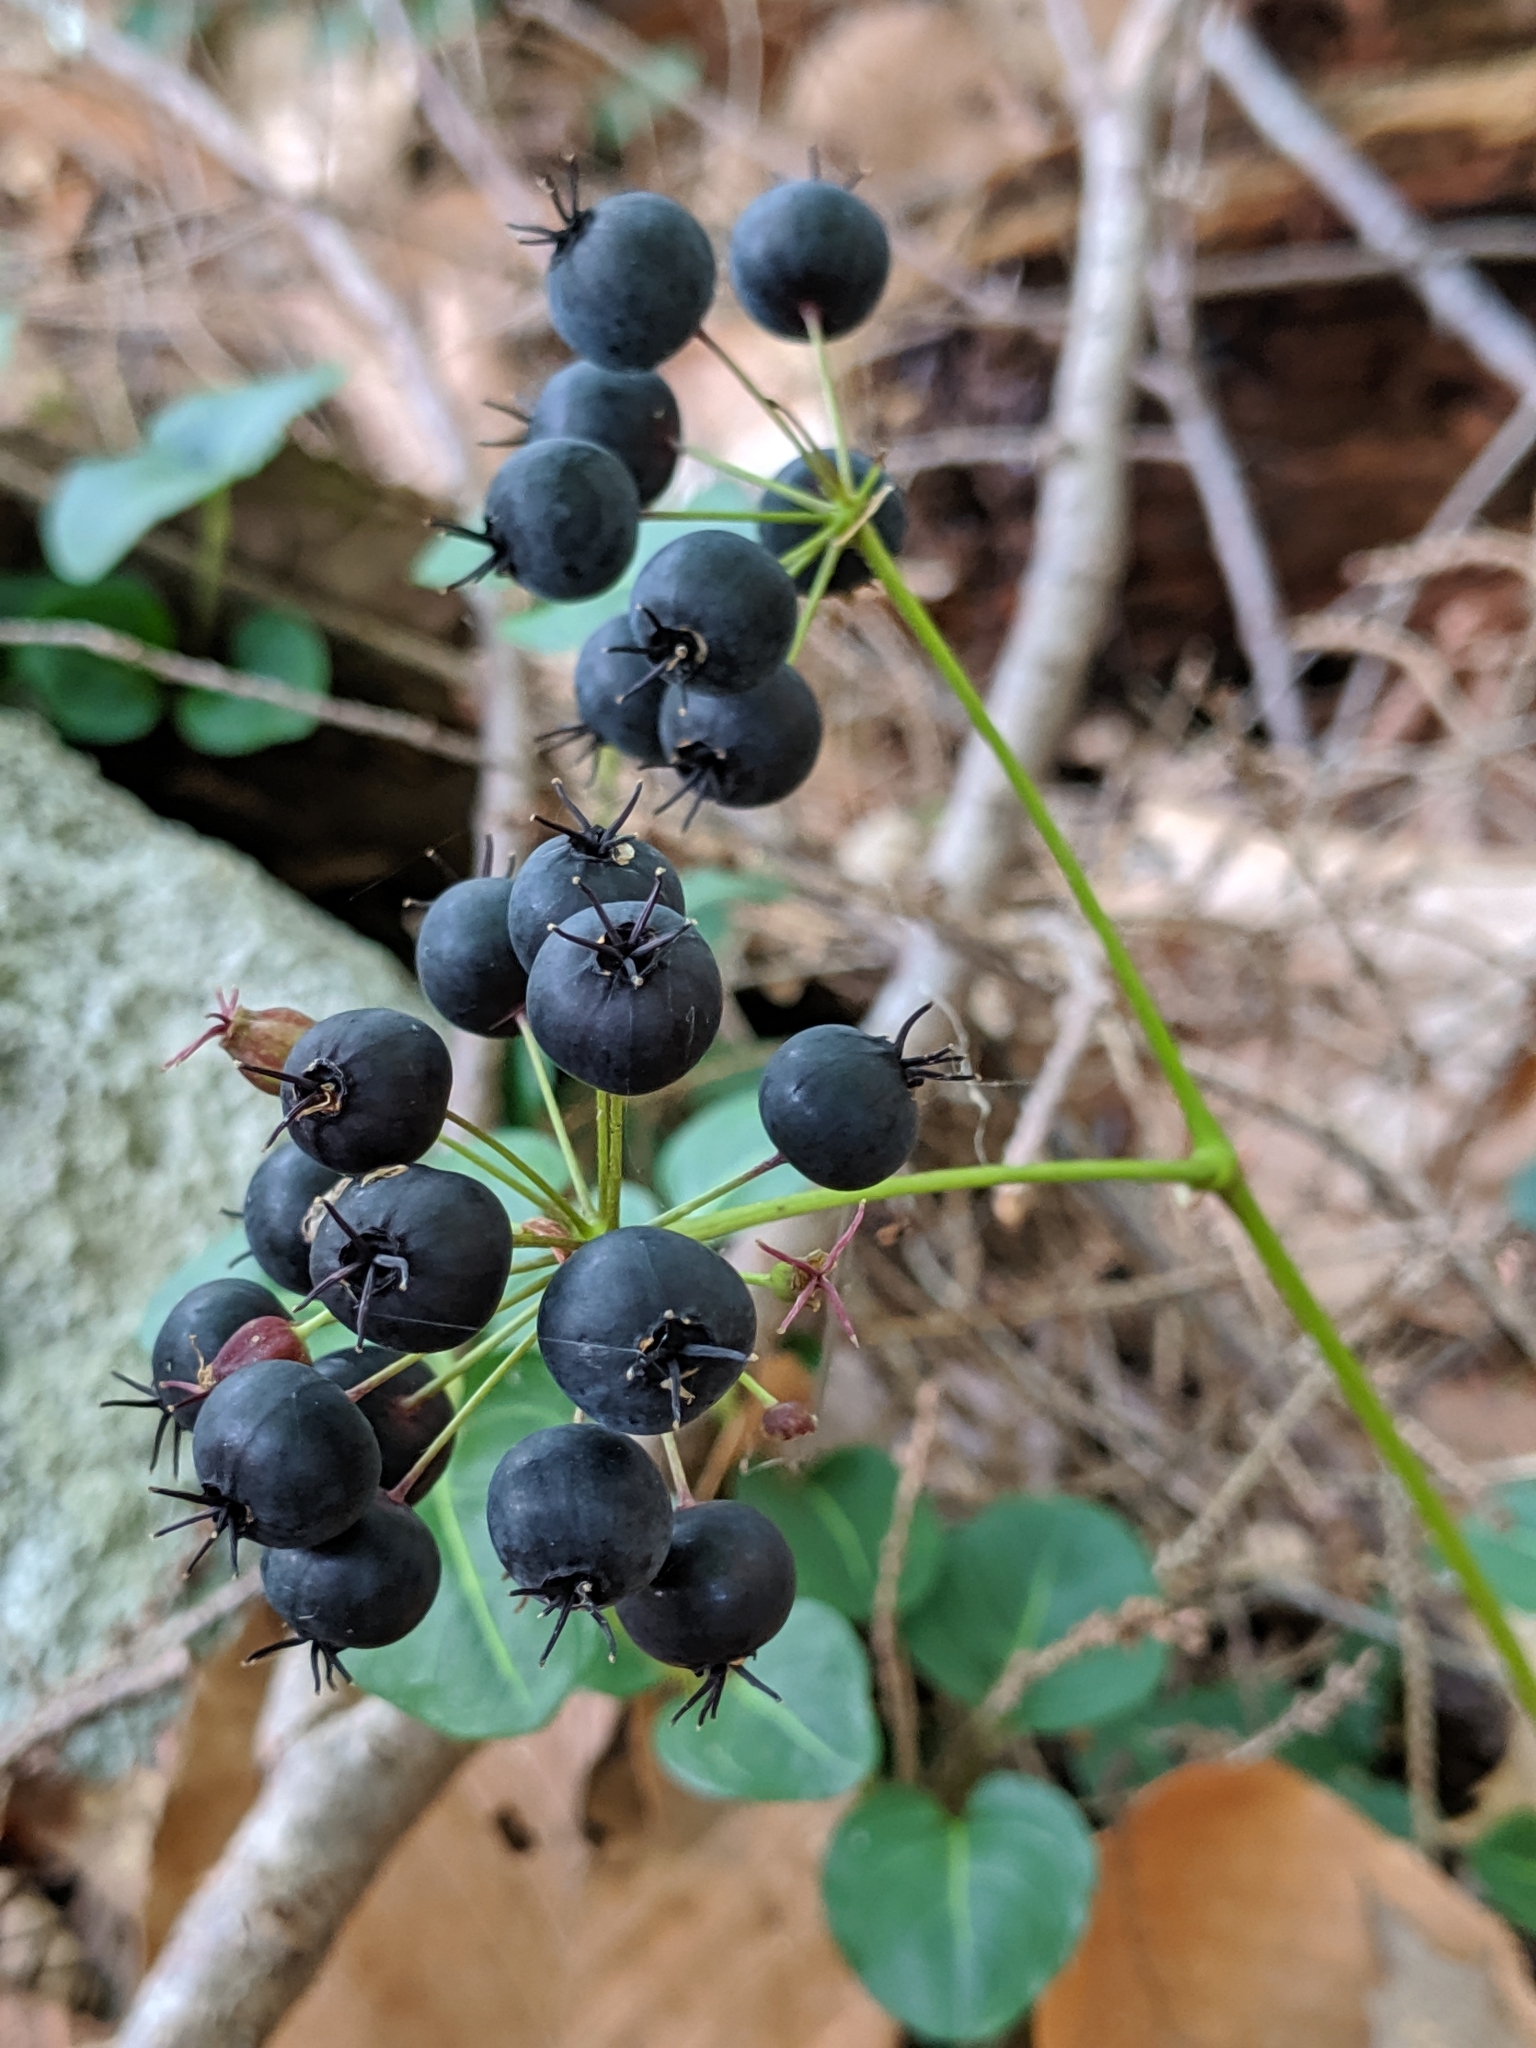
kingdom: Plantae
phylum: Tracheophyta
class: Magnoliopsida
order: Apiales
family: Araliaceae
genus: Aralia
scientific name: Aralia nudicaulis
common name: Wild sarsaparilla
